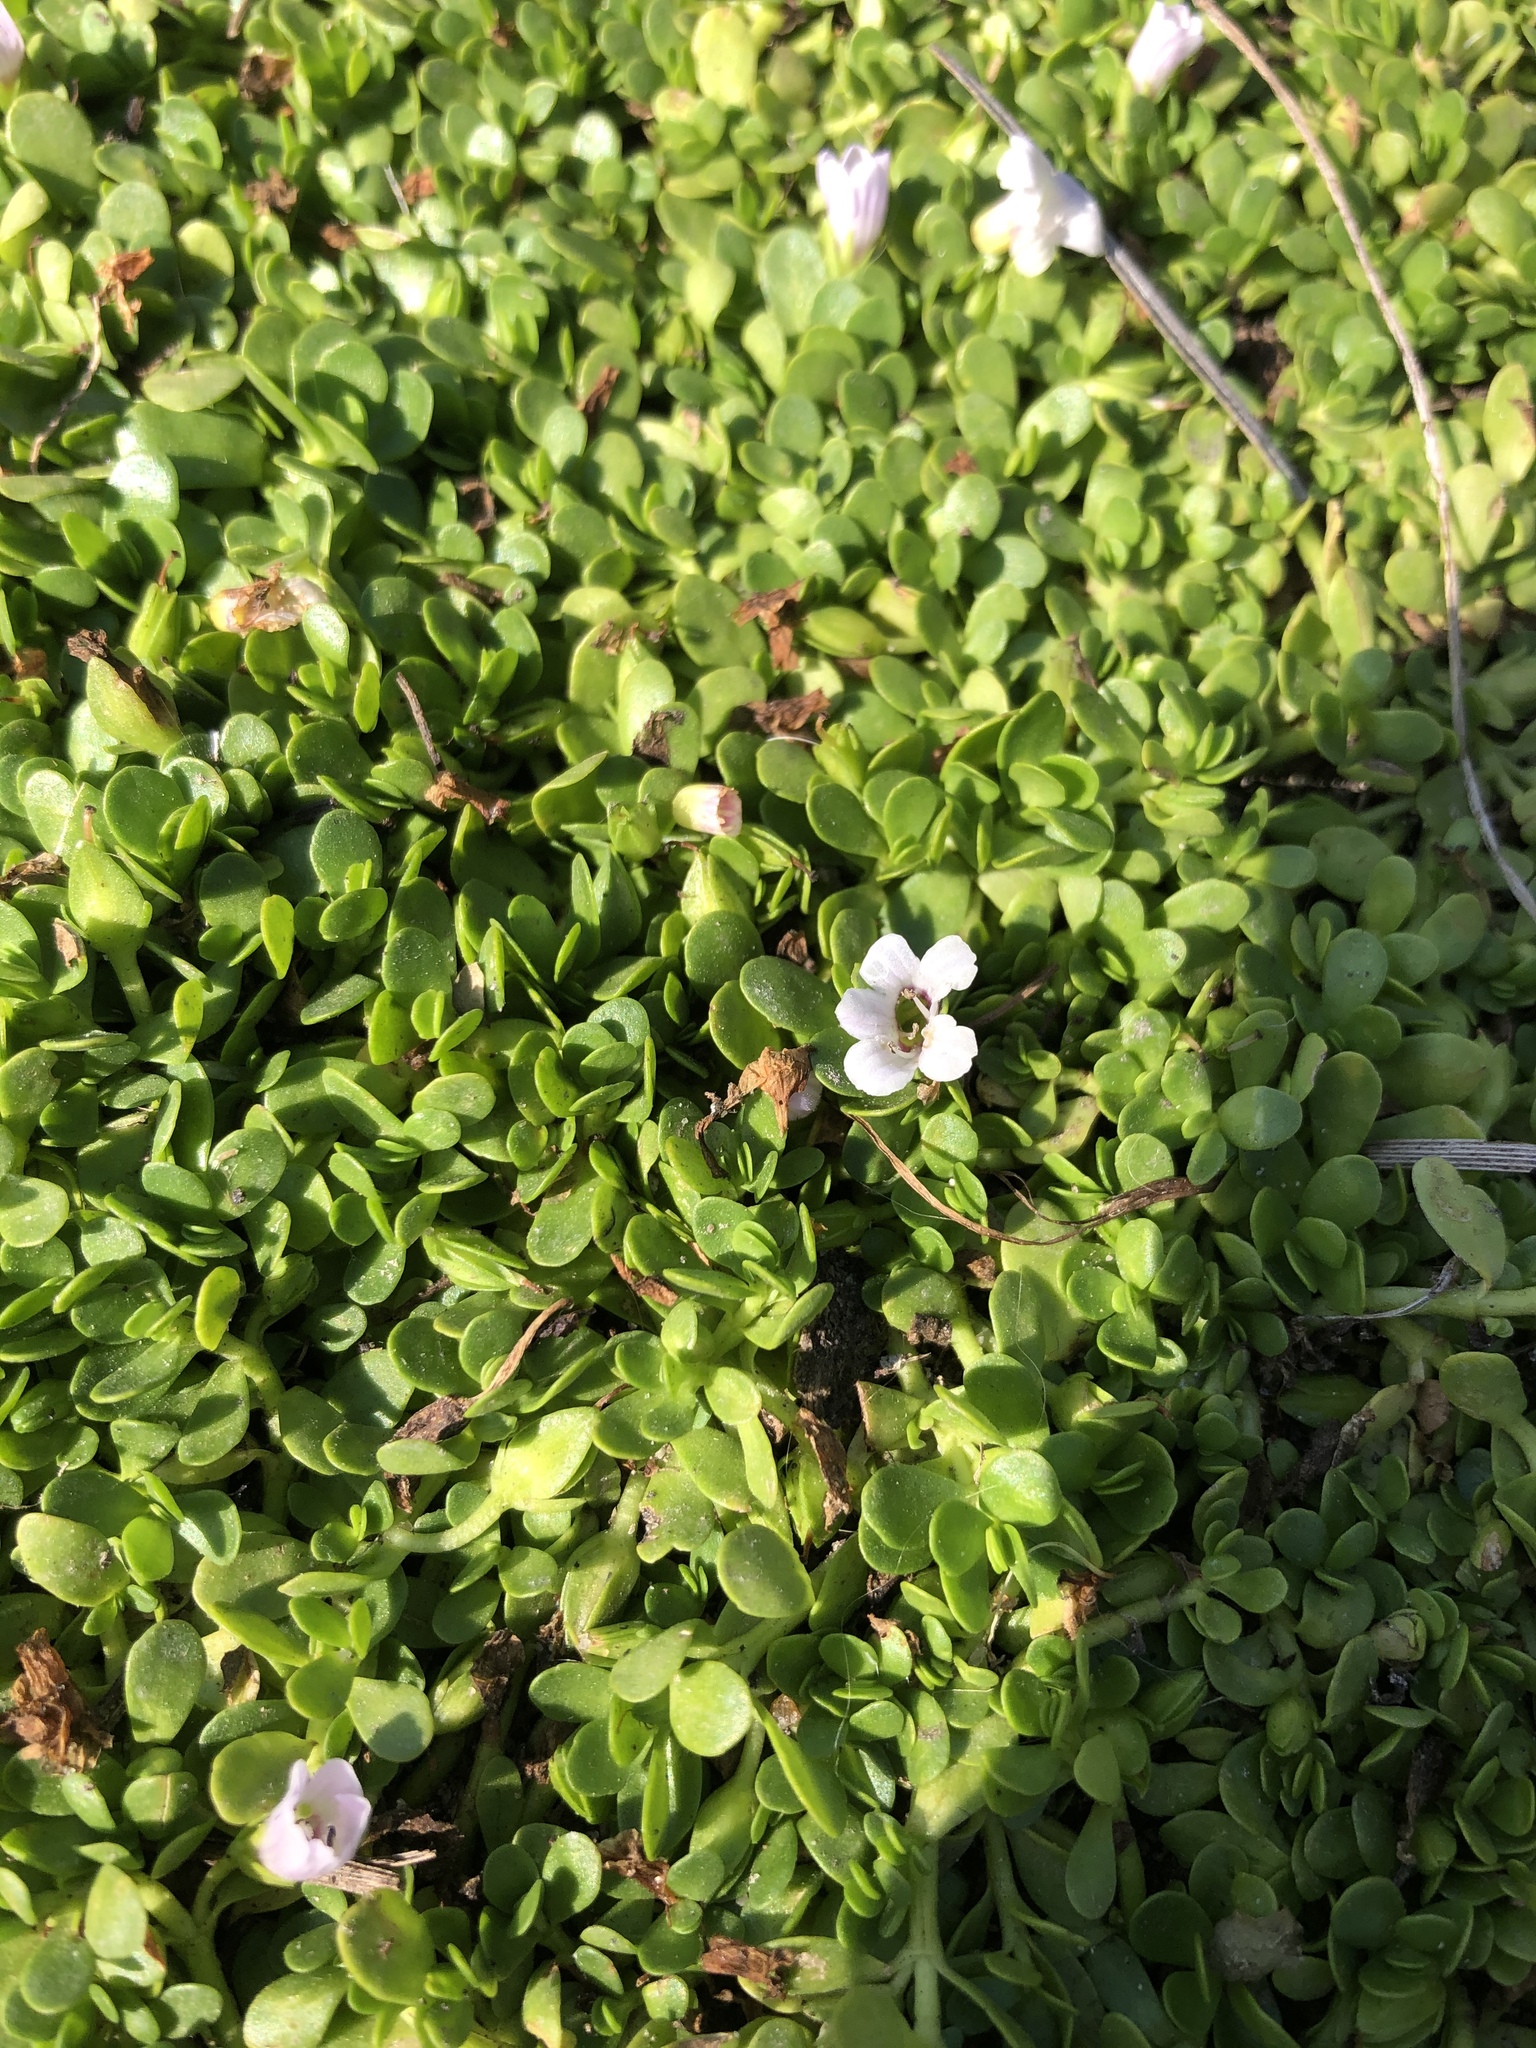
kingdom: Plantae
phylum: Tracheophyta
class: Magnoliopsida
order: Lamiales
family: Plantaginaceae
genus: Bacopa
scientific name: Bacopa monnieri
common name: Indian-pennywort
